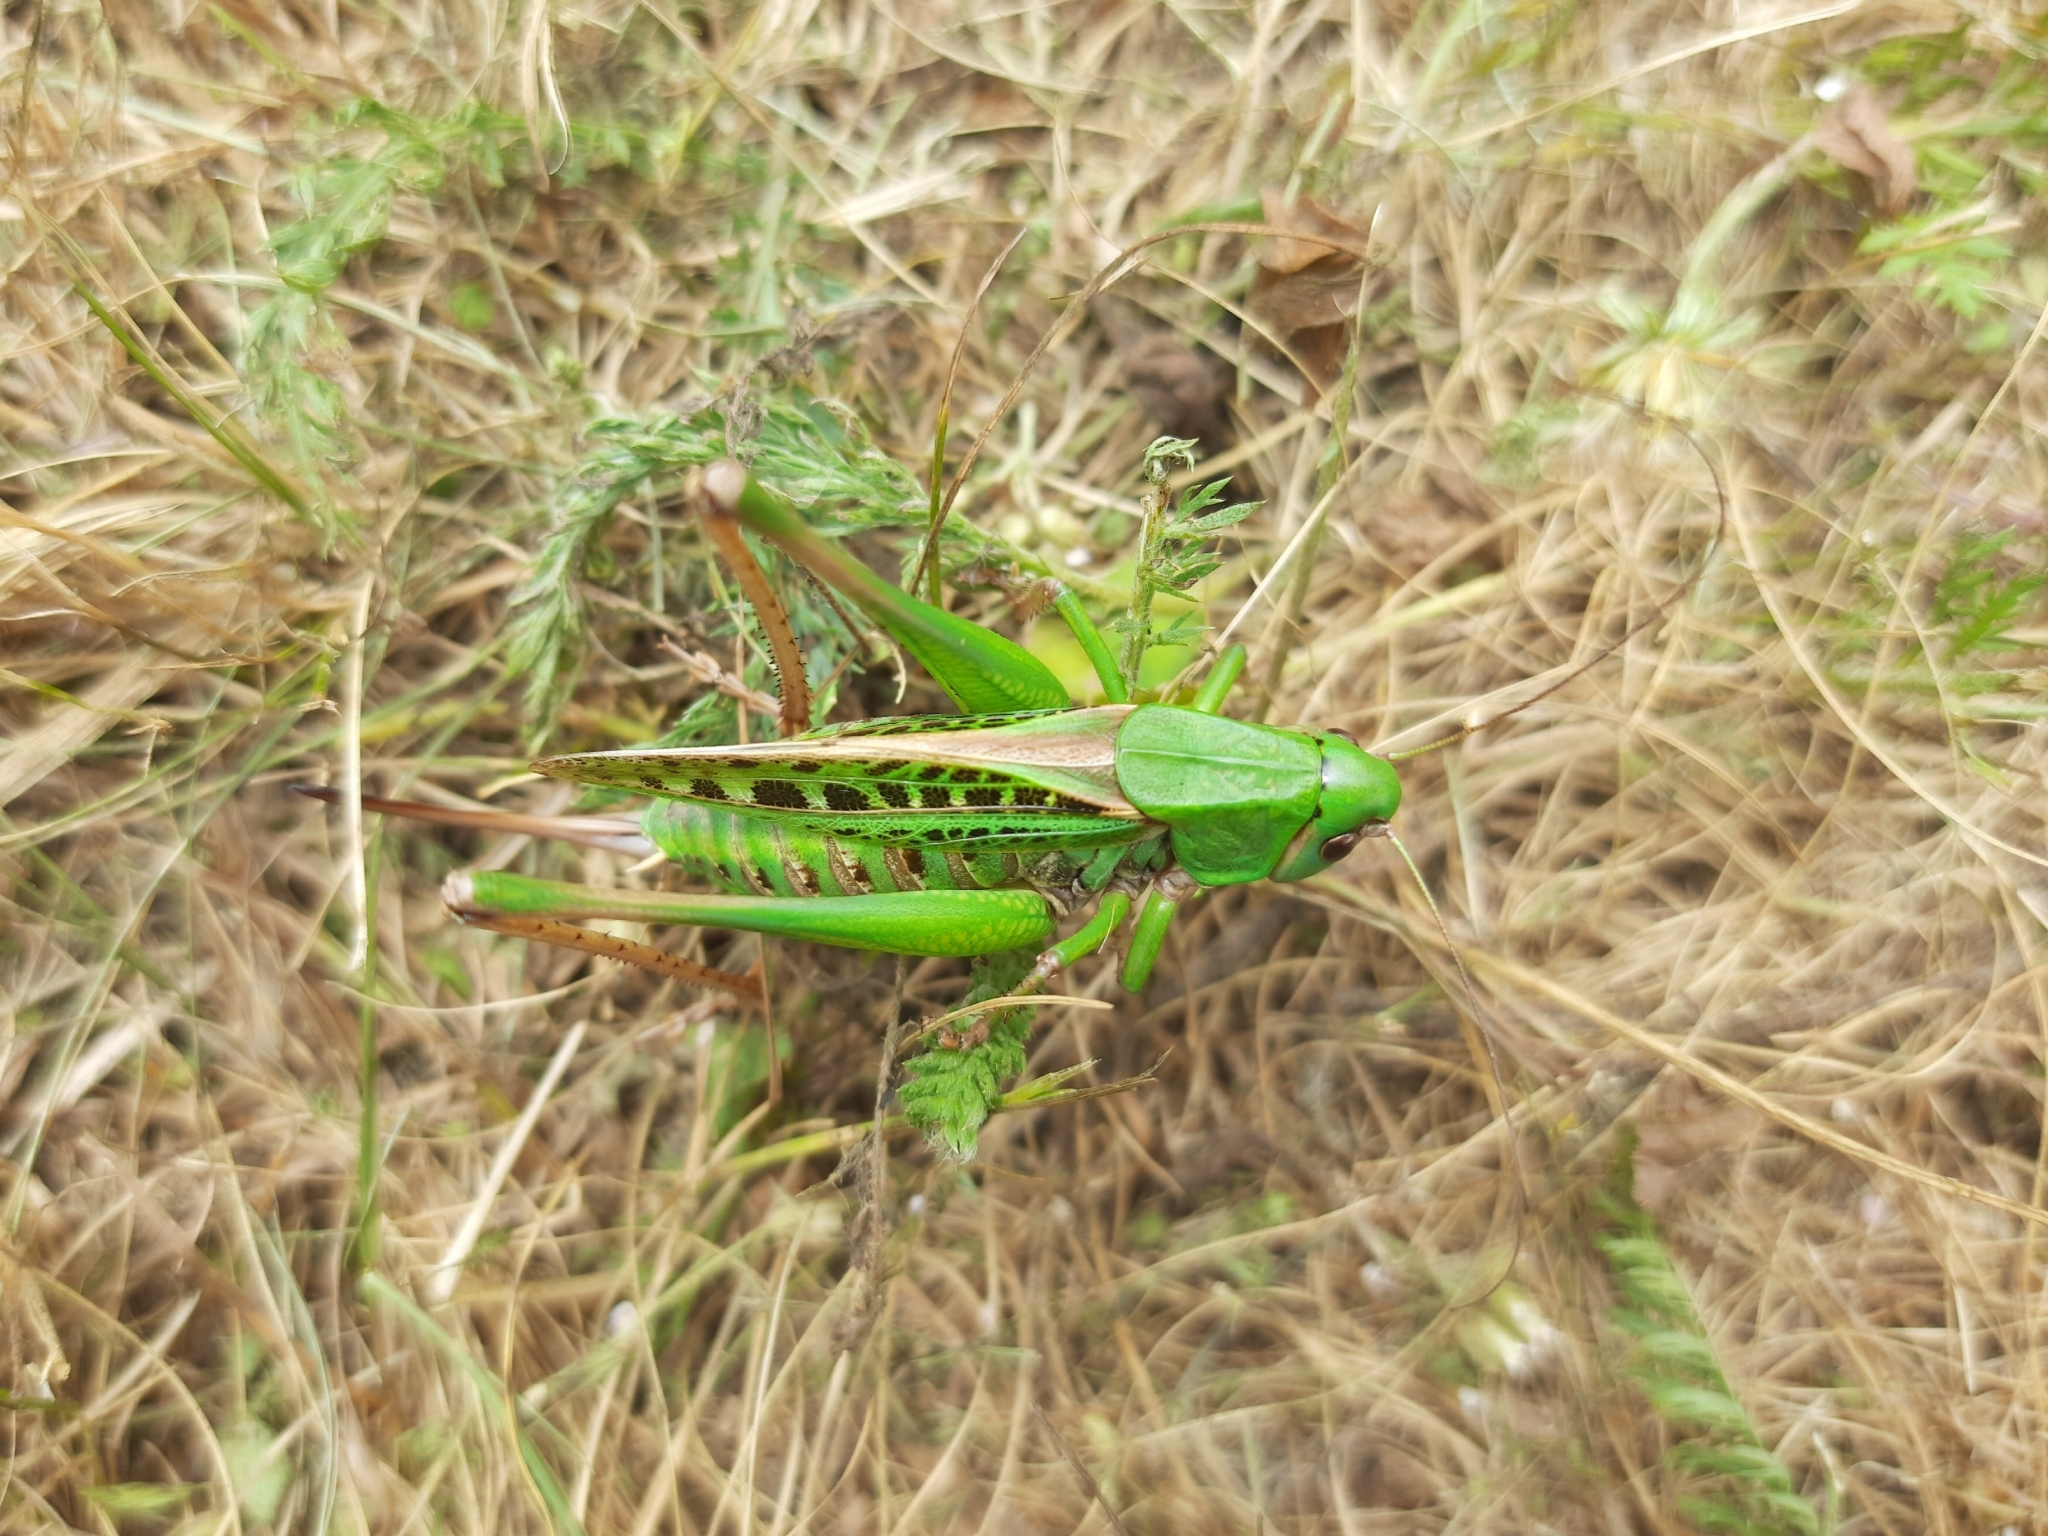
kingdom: Animalia
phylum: Arthropoda
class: Insecta
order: Orthoptera
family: Tettigoniidae
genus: Decticus
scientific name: Decticus verrucivorus
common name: Wart-biter
